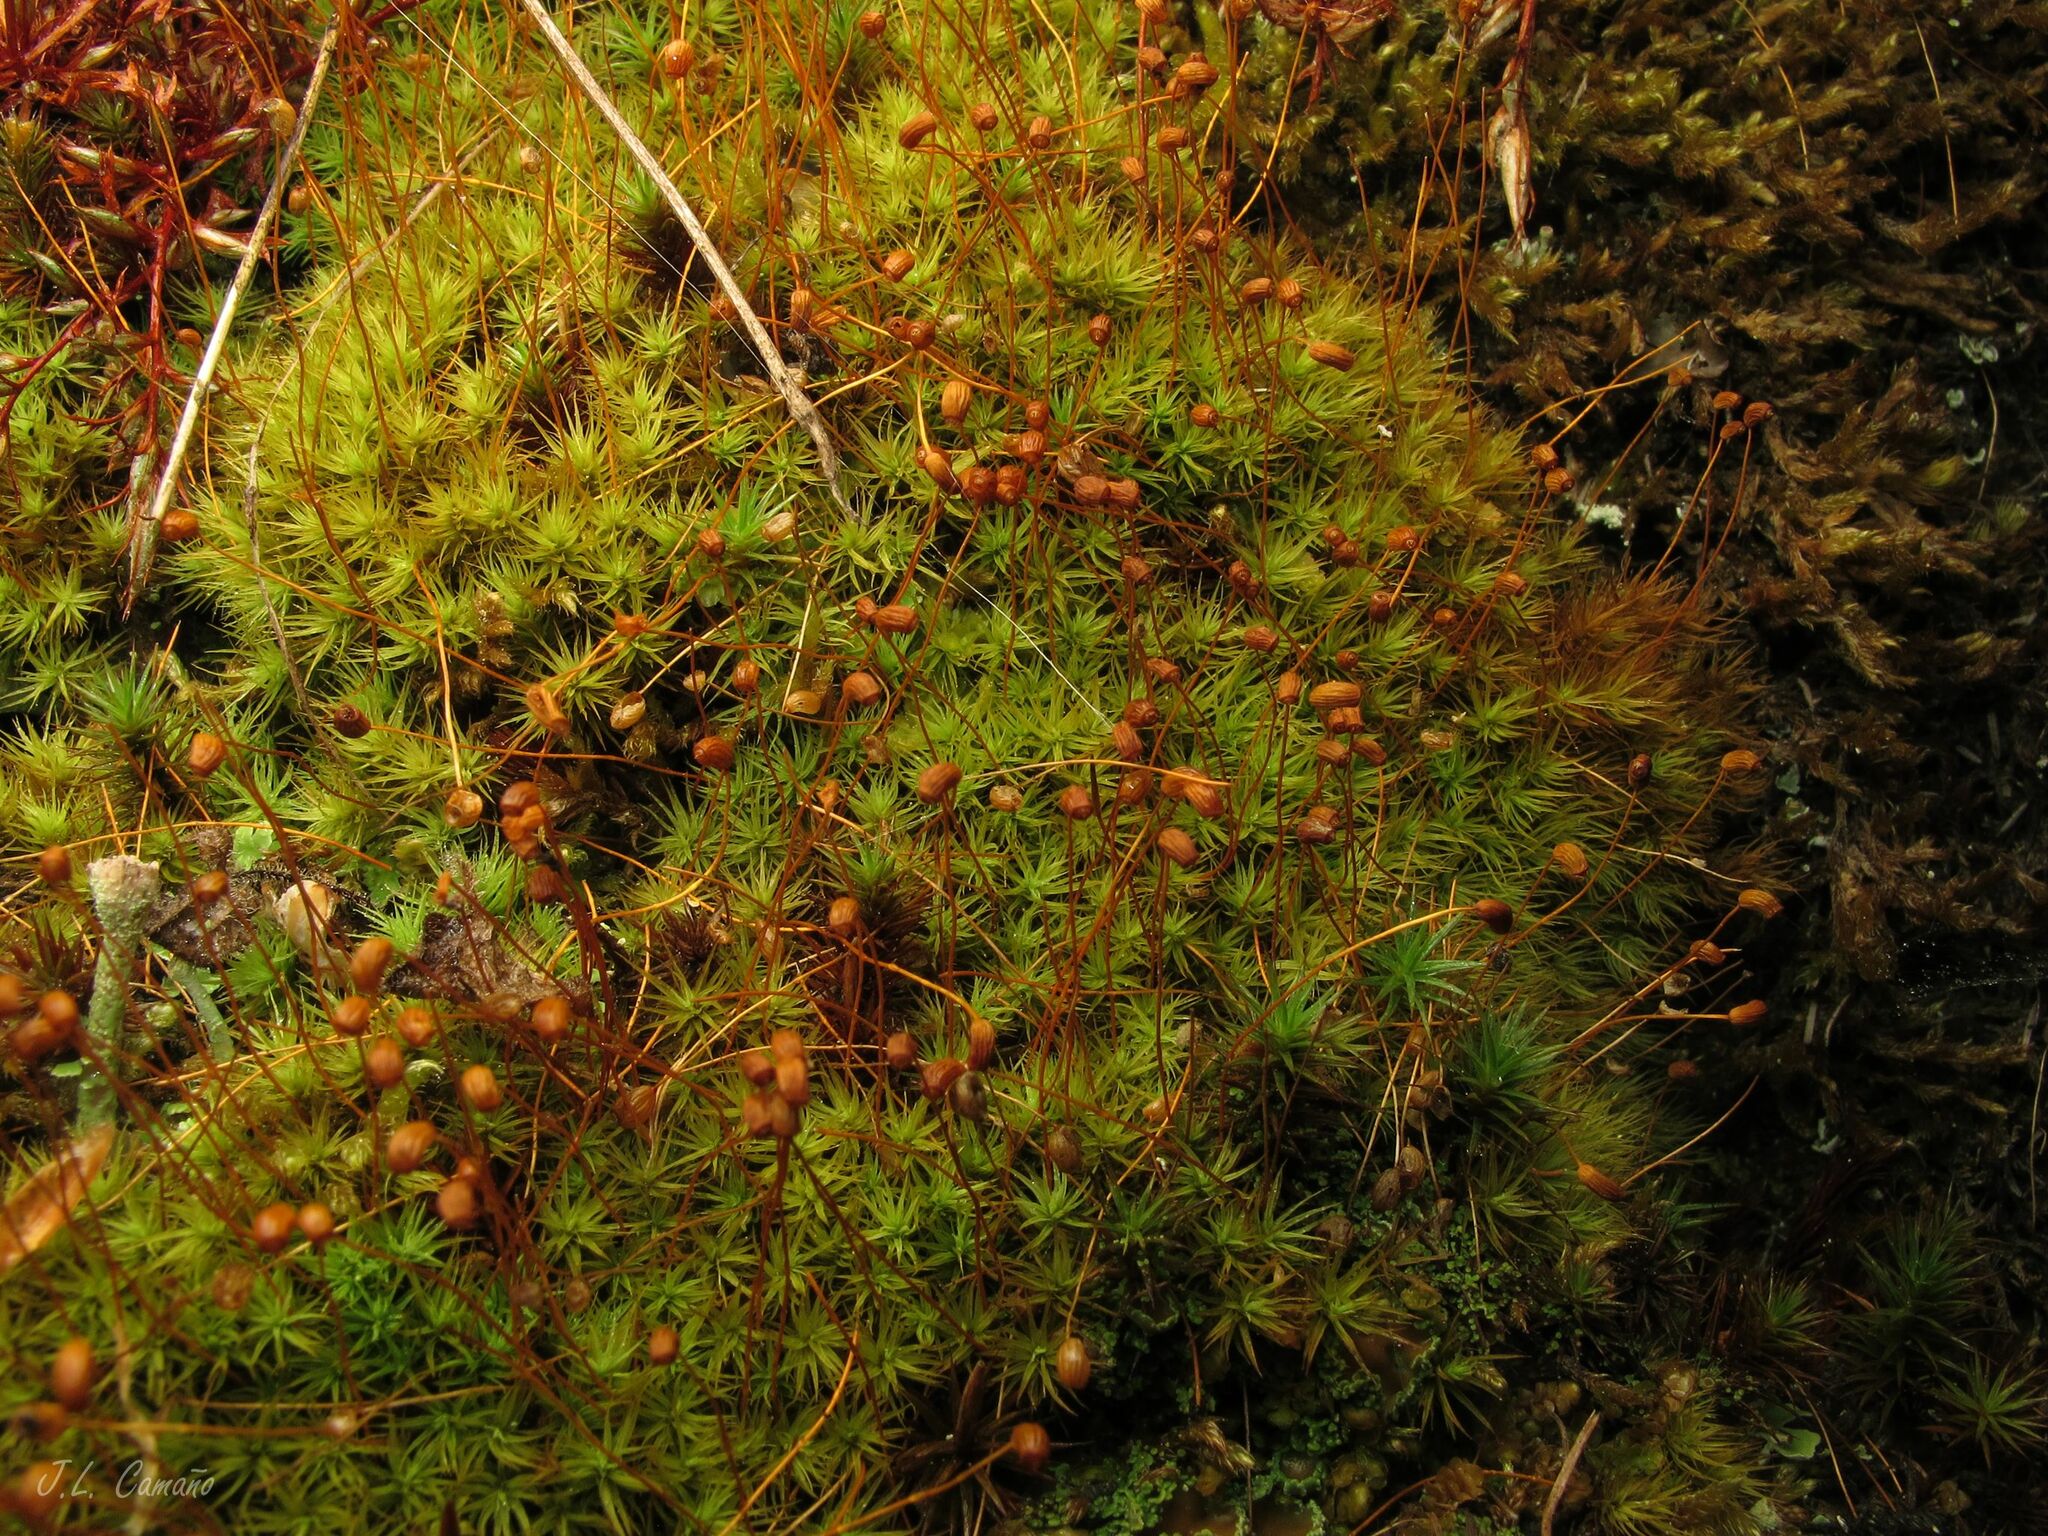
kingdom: Plantae
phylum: Bryophyta
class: Bryopsida
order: Bartramiales
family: Bartramiaceae
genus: Bartramia
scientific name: Bartramia ithyphylla
